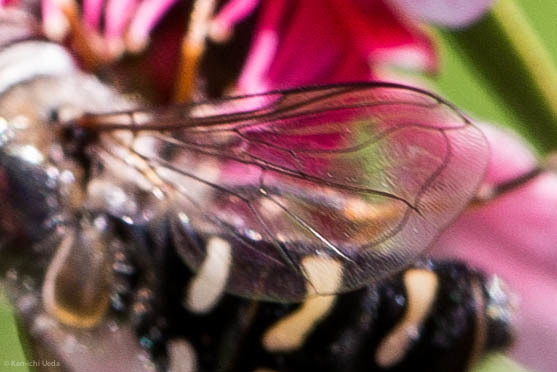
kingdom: Animalia
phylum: Arthropoda
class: Insecta
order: Diptera
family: Syrphidae
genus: Scaeva
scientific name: Scaeva affinis
